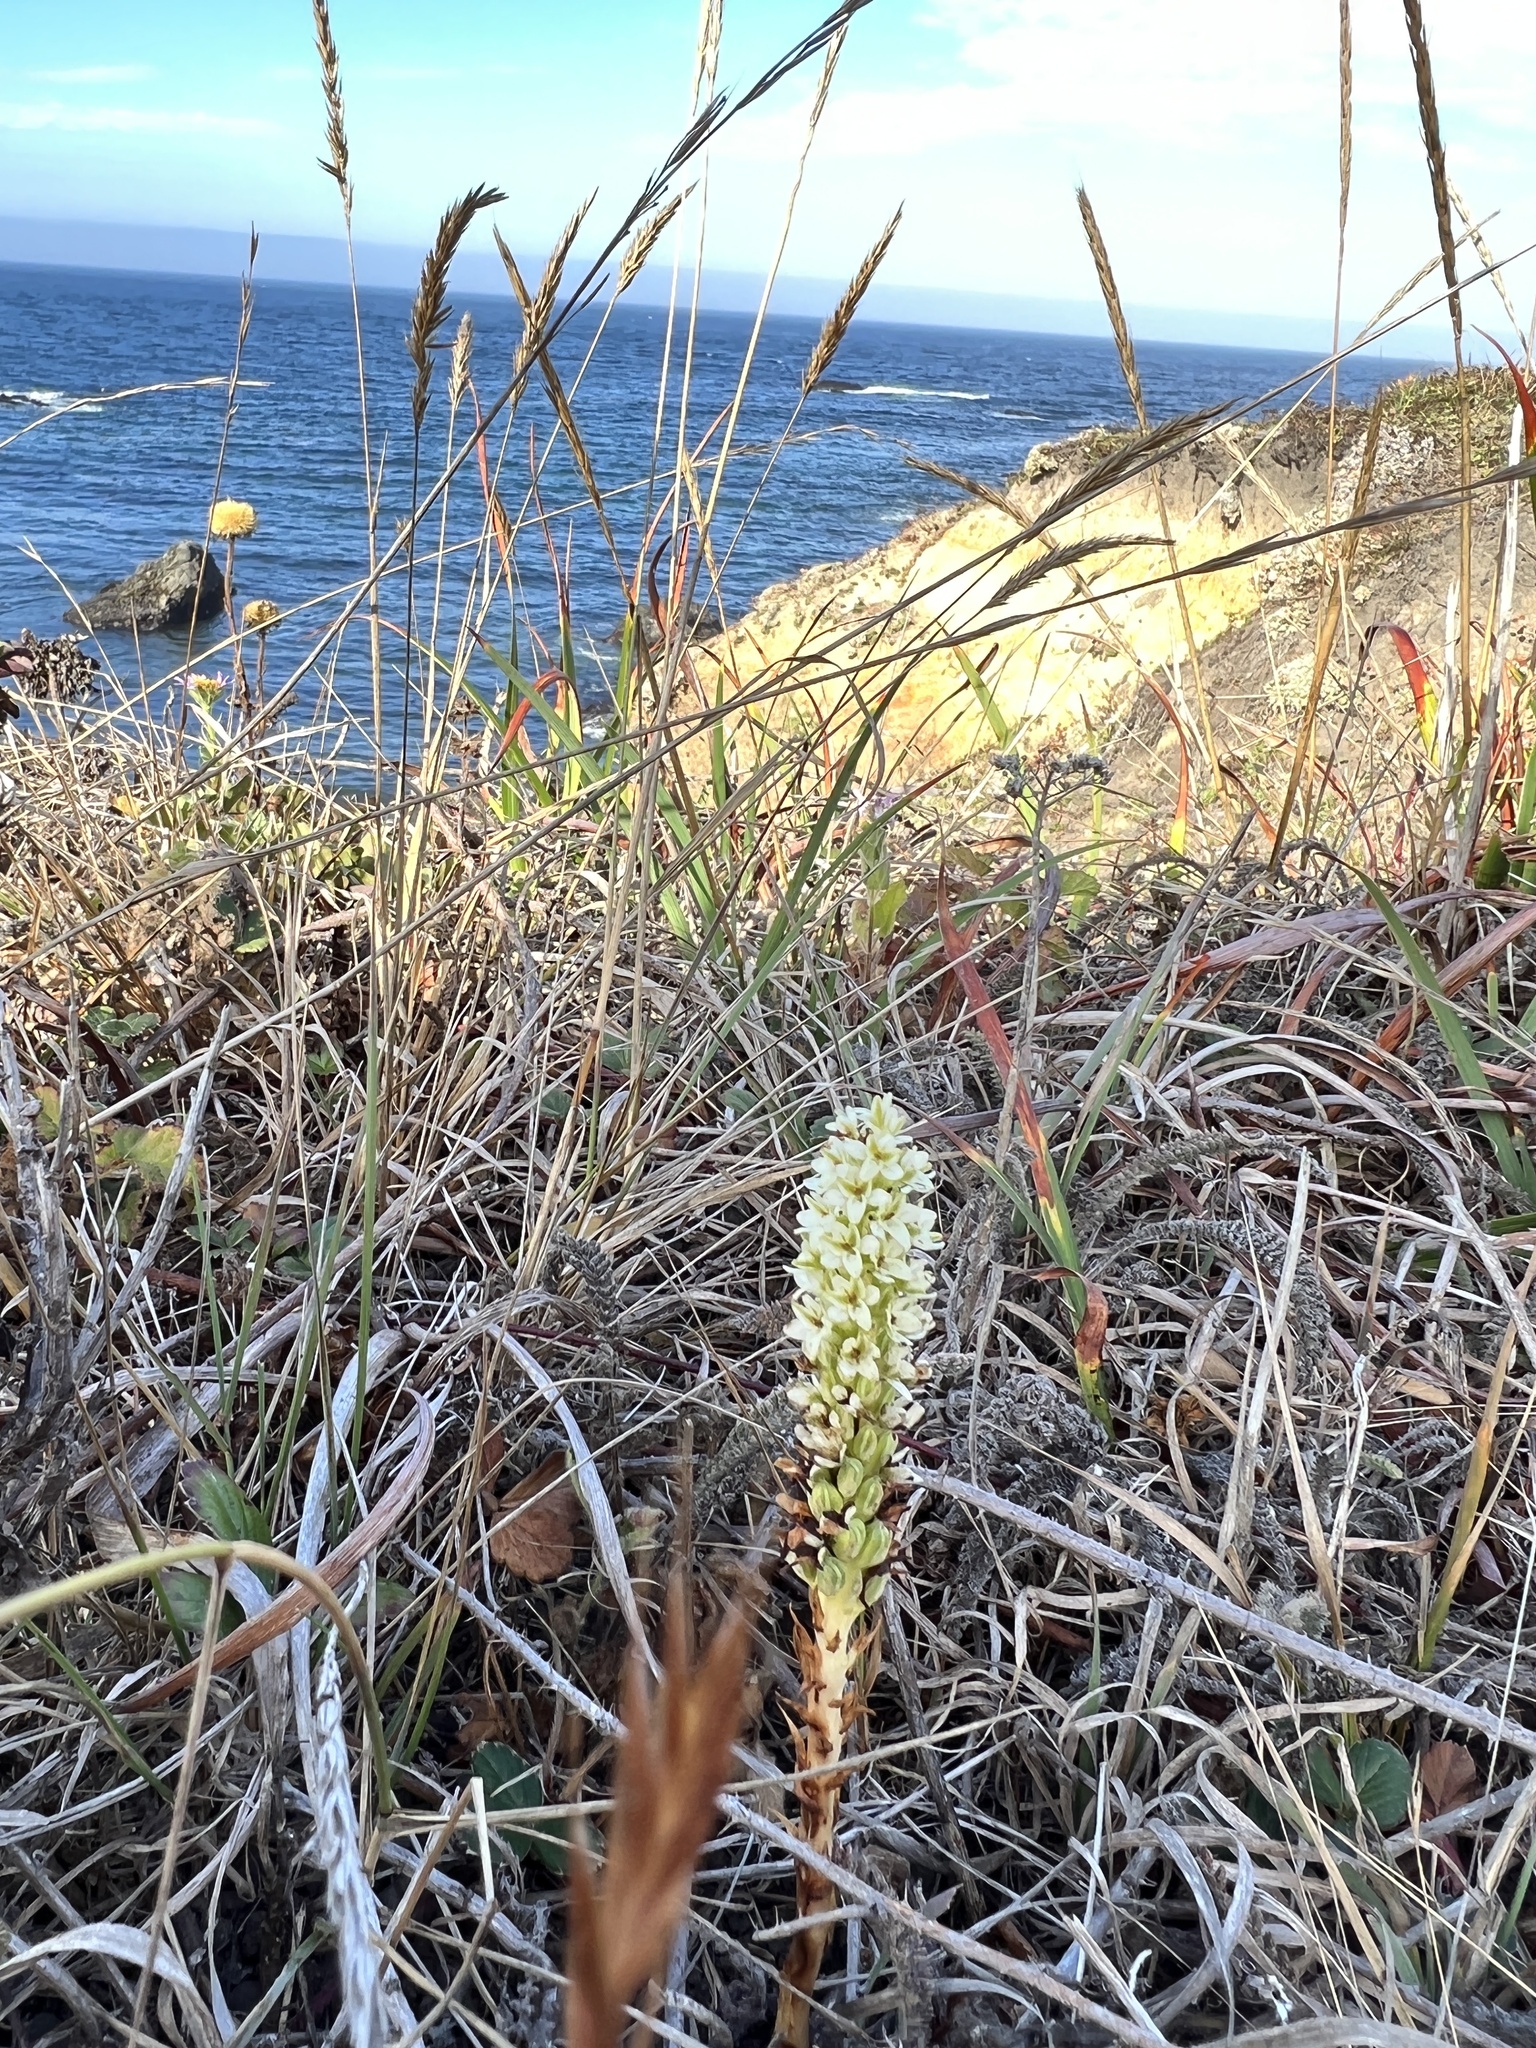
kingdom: Plantae
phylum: Tracheophyta
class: Liliopsida
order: Asparagales
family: Orchidaceae
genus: Platanthera
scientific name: Platanthera elegans
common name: Coast piperia
